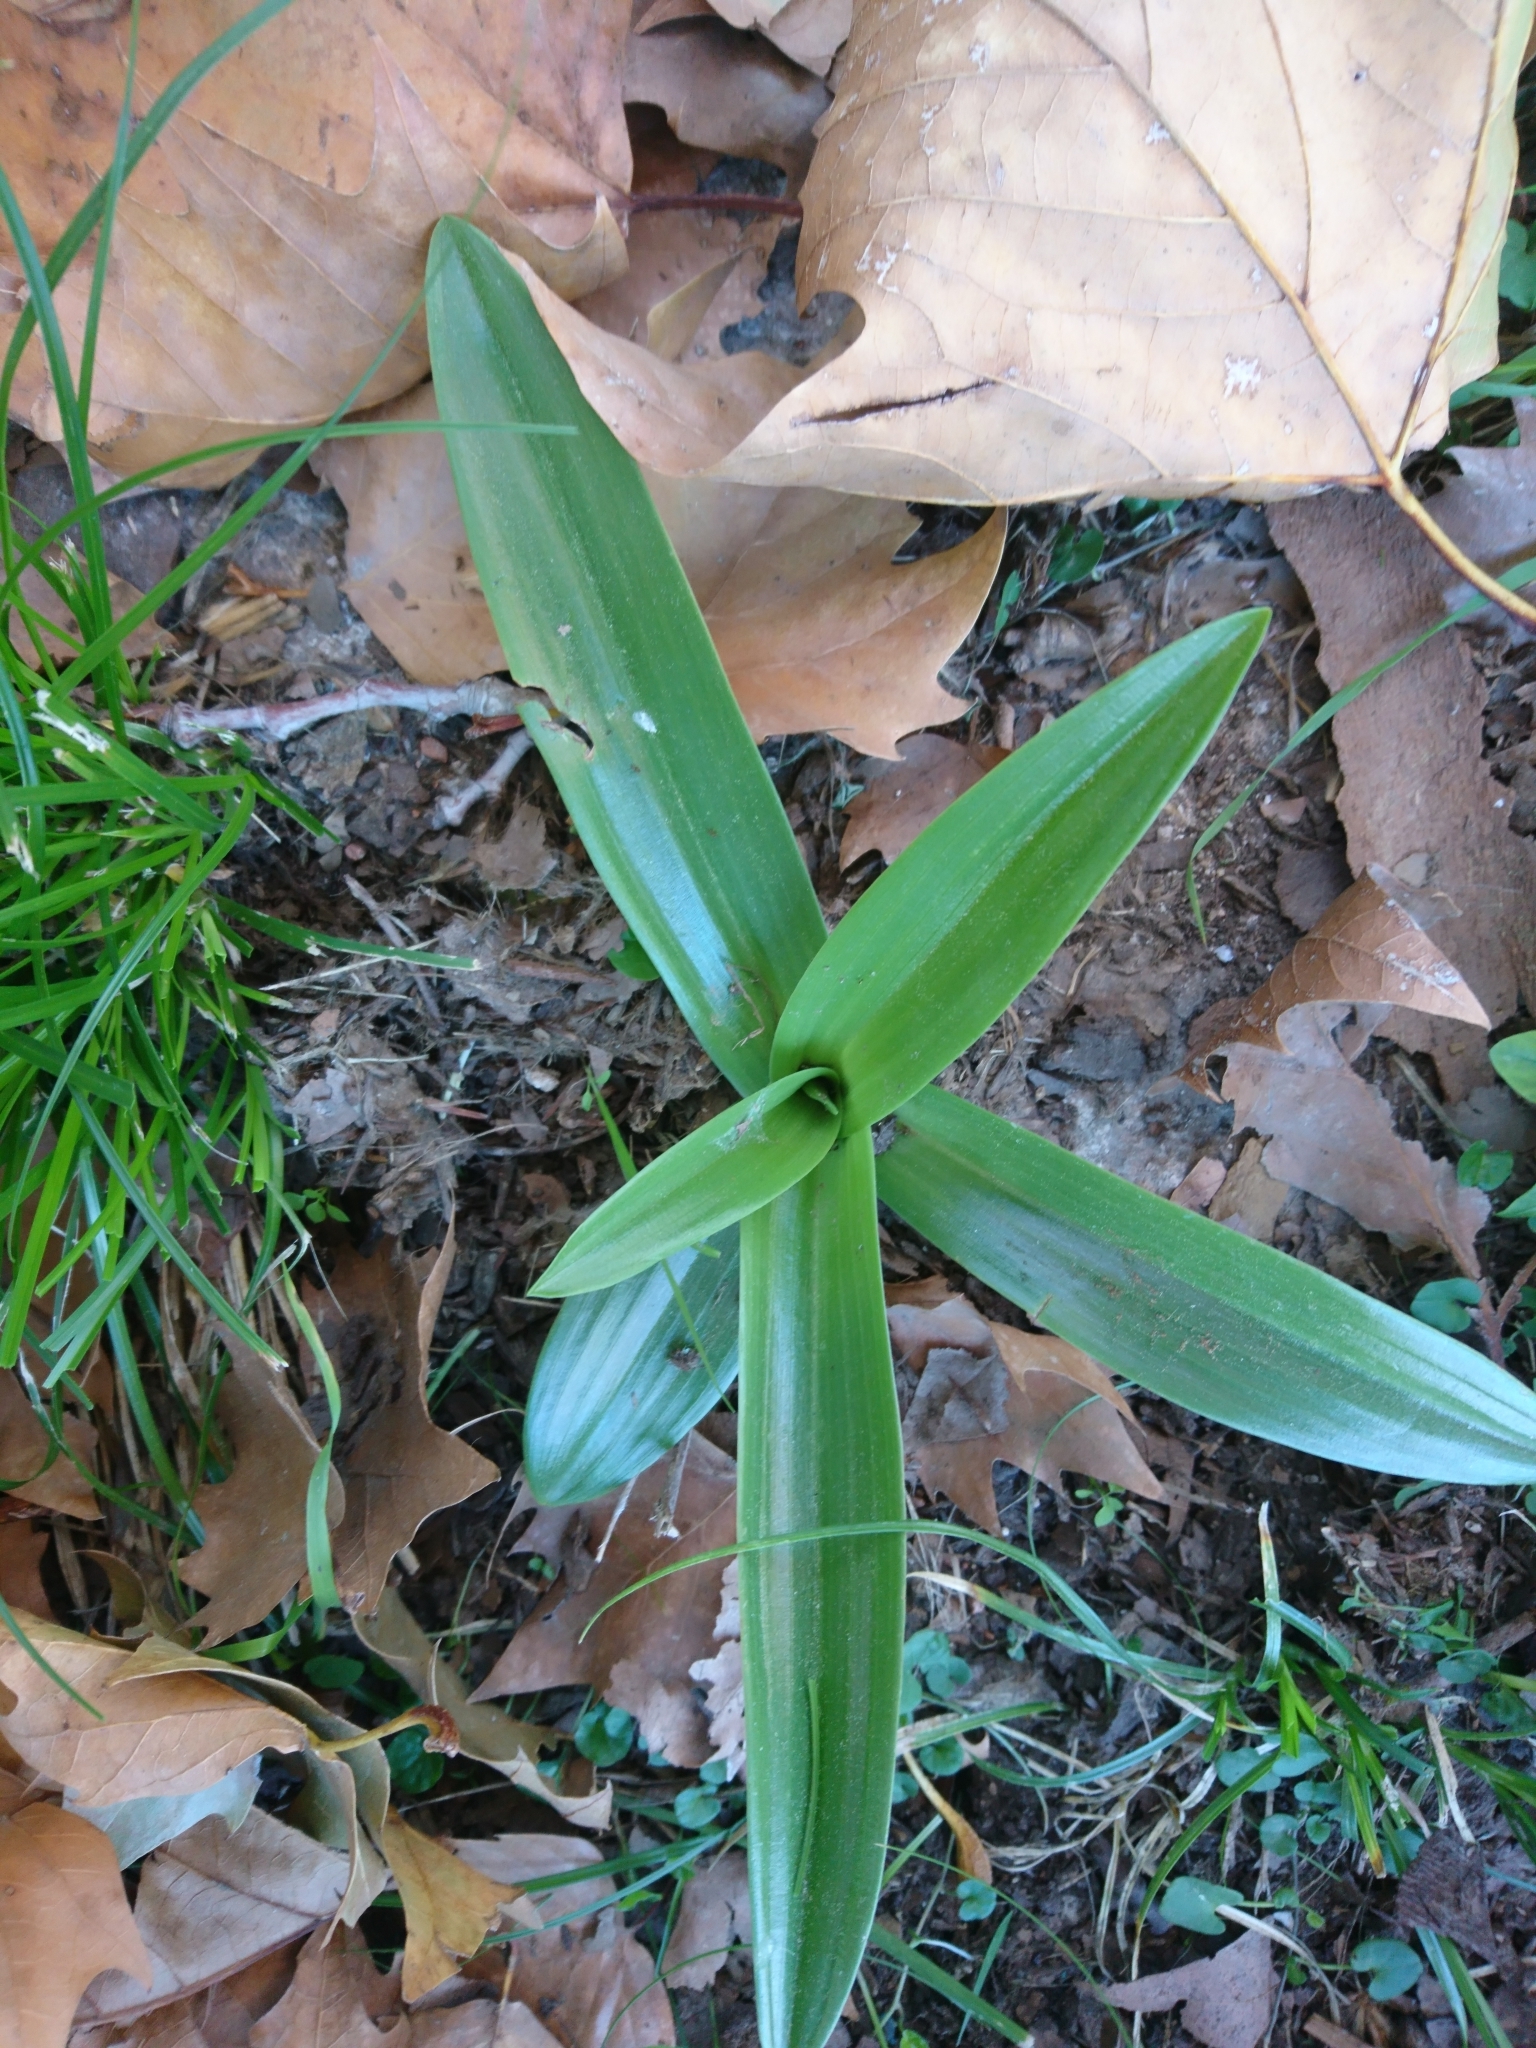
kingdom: Plantae
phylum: Tracheophyta
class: Liliopsida
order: Asparagales
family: Orchidaceae
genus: Chloraea
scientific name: Chloraea membranacea
